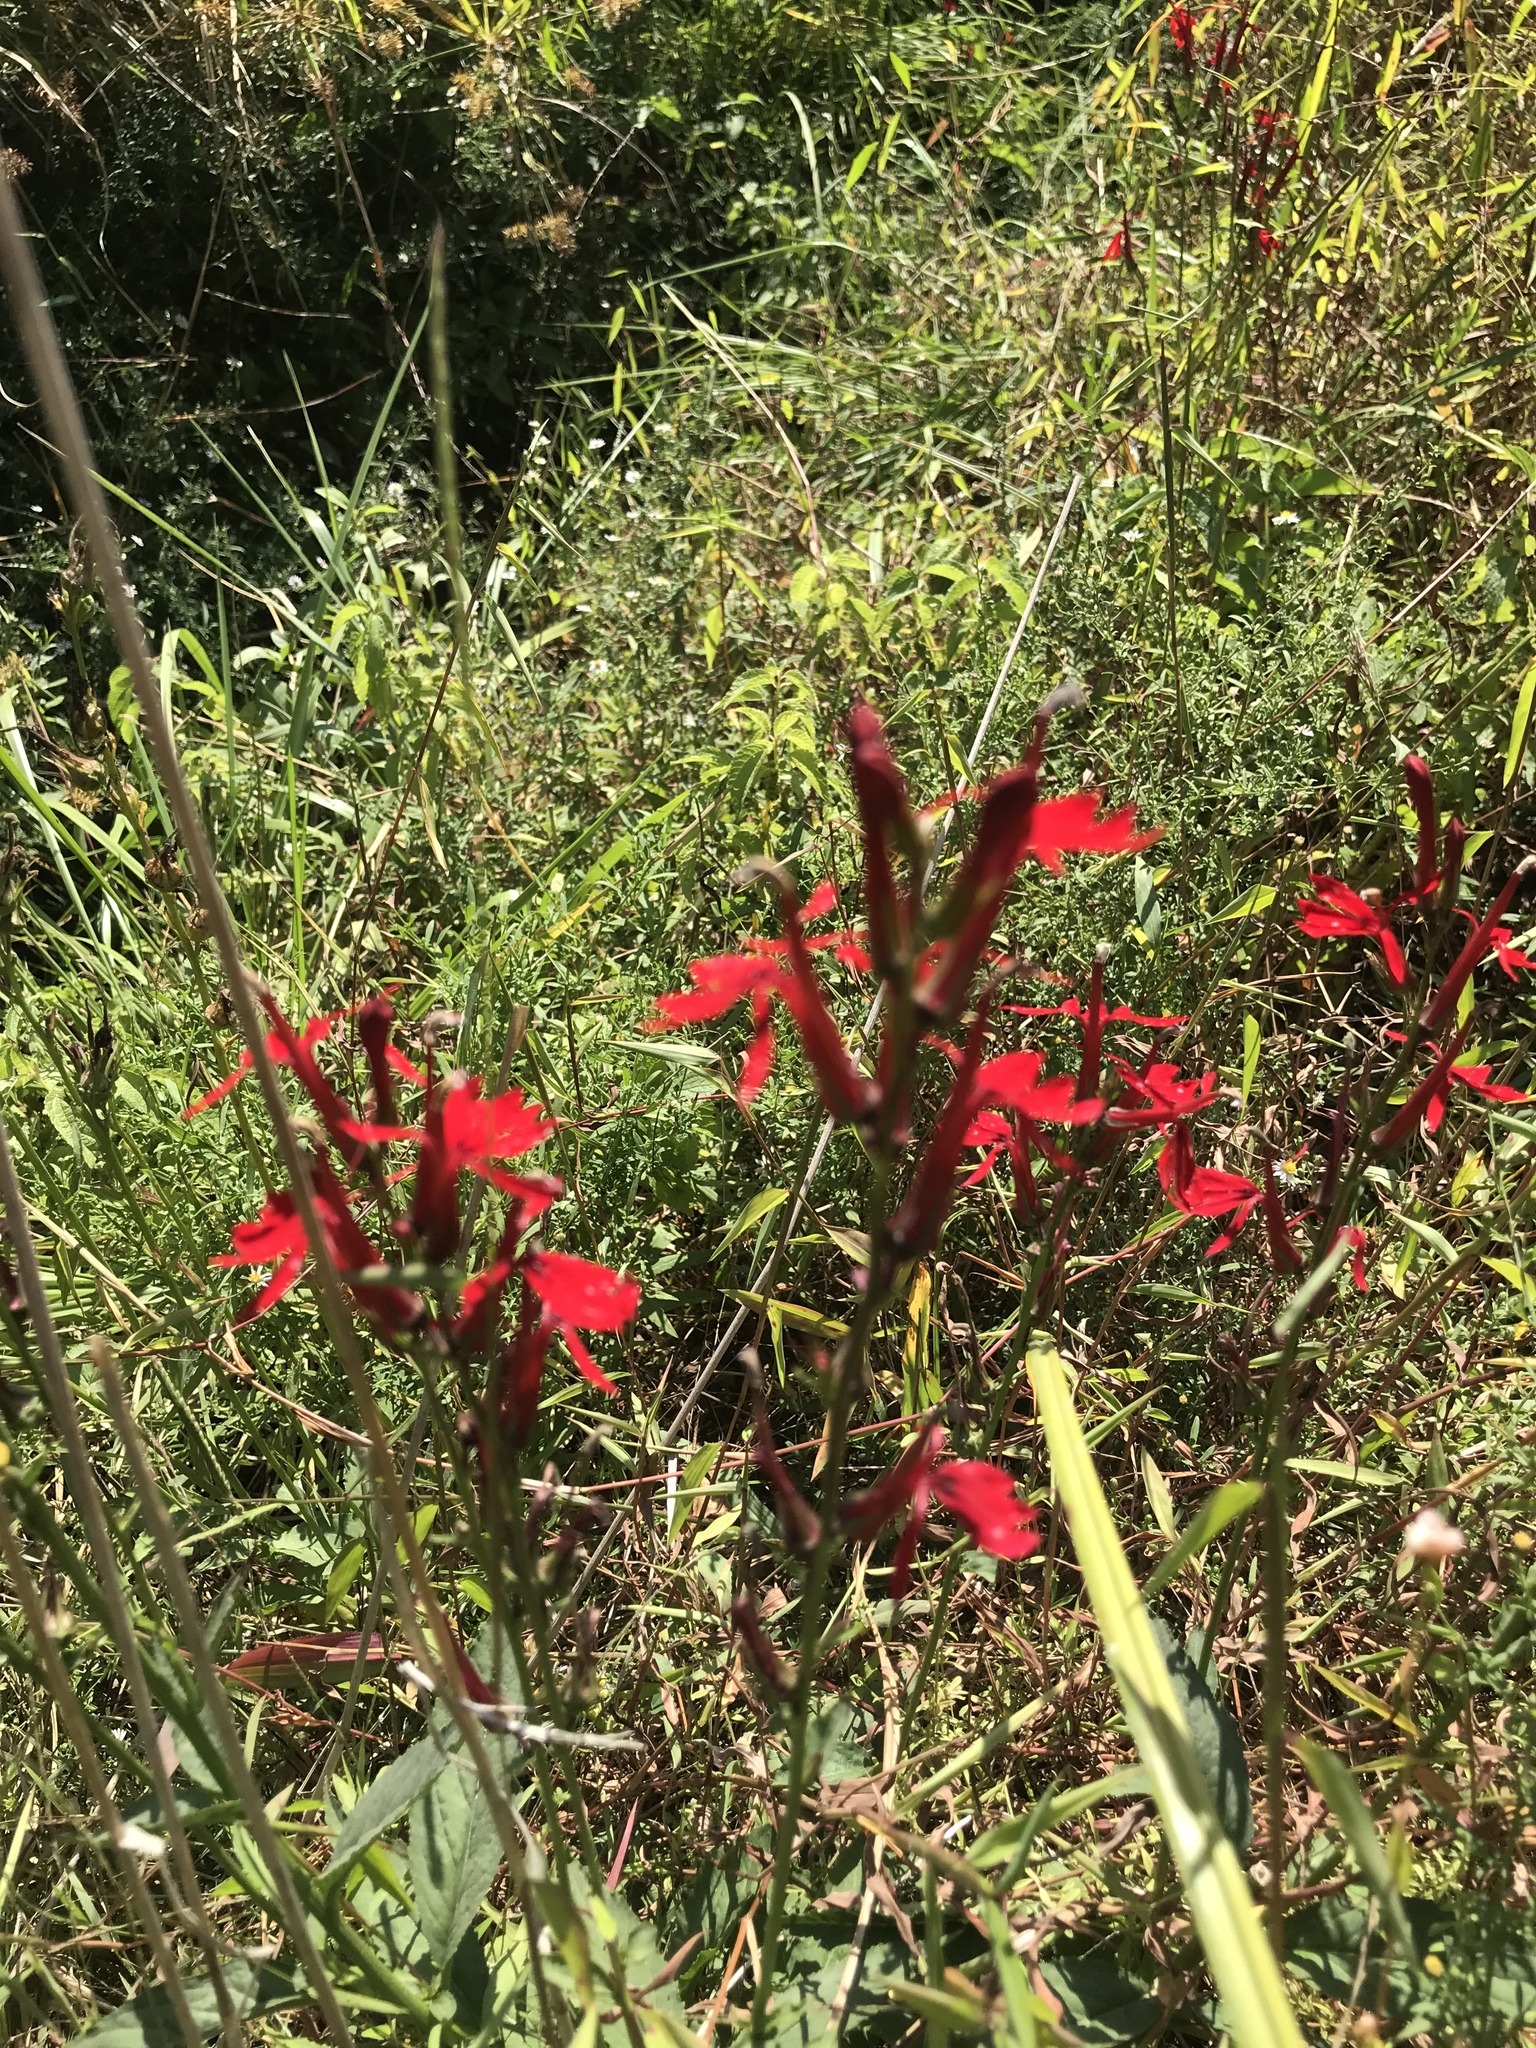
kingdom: Plantae
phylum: Tracheophyta
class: Magnoliopsida
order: Asterales
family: Campanulaceae
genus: Lobelia
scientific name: Lobelia cardinalis
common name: Cardinal flower
